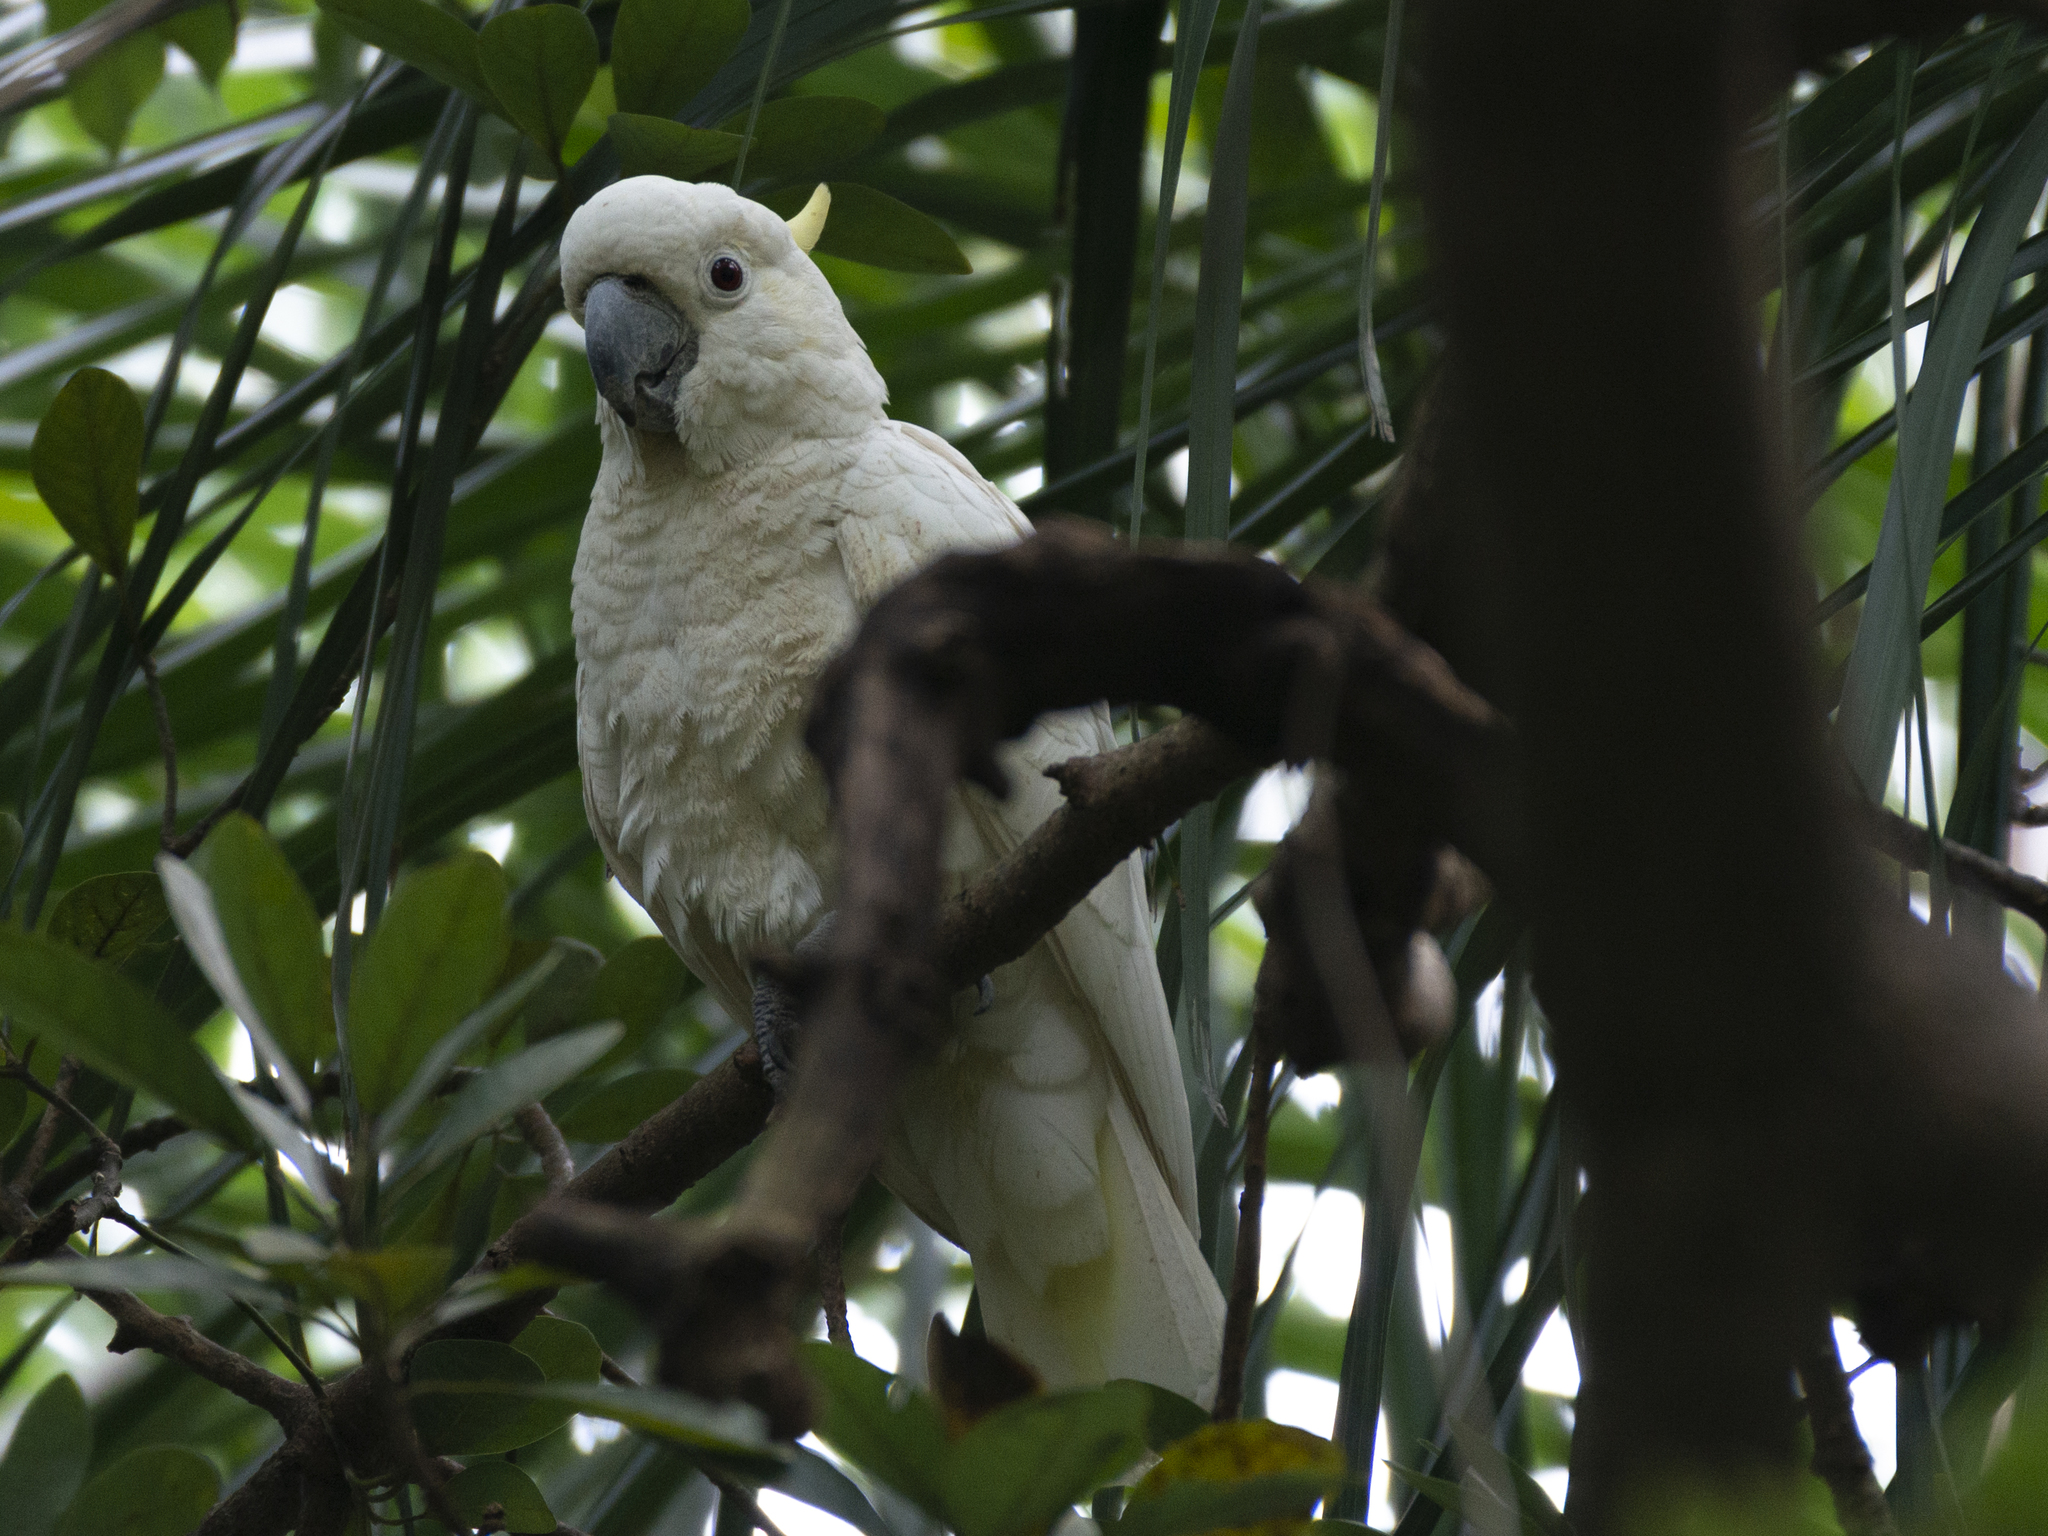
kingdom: Animalia
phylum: Chordata
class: Aves
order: Psittaciformes
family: Psittacidae
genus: Cacatua
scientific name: Cacatua sulphurea
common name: Yellow-crested cockatoo
